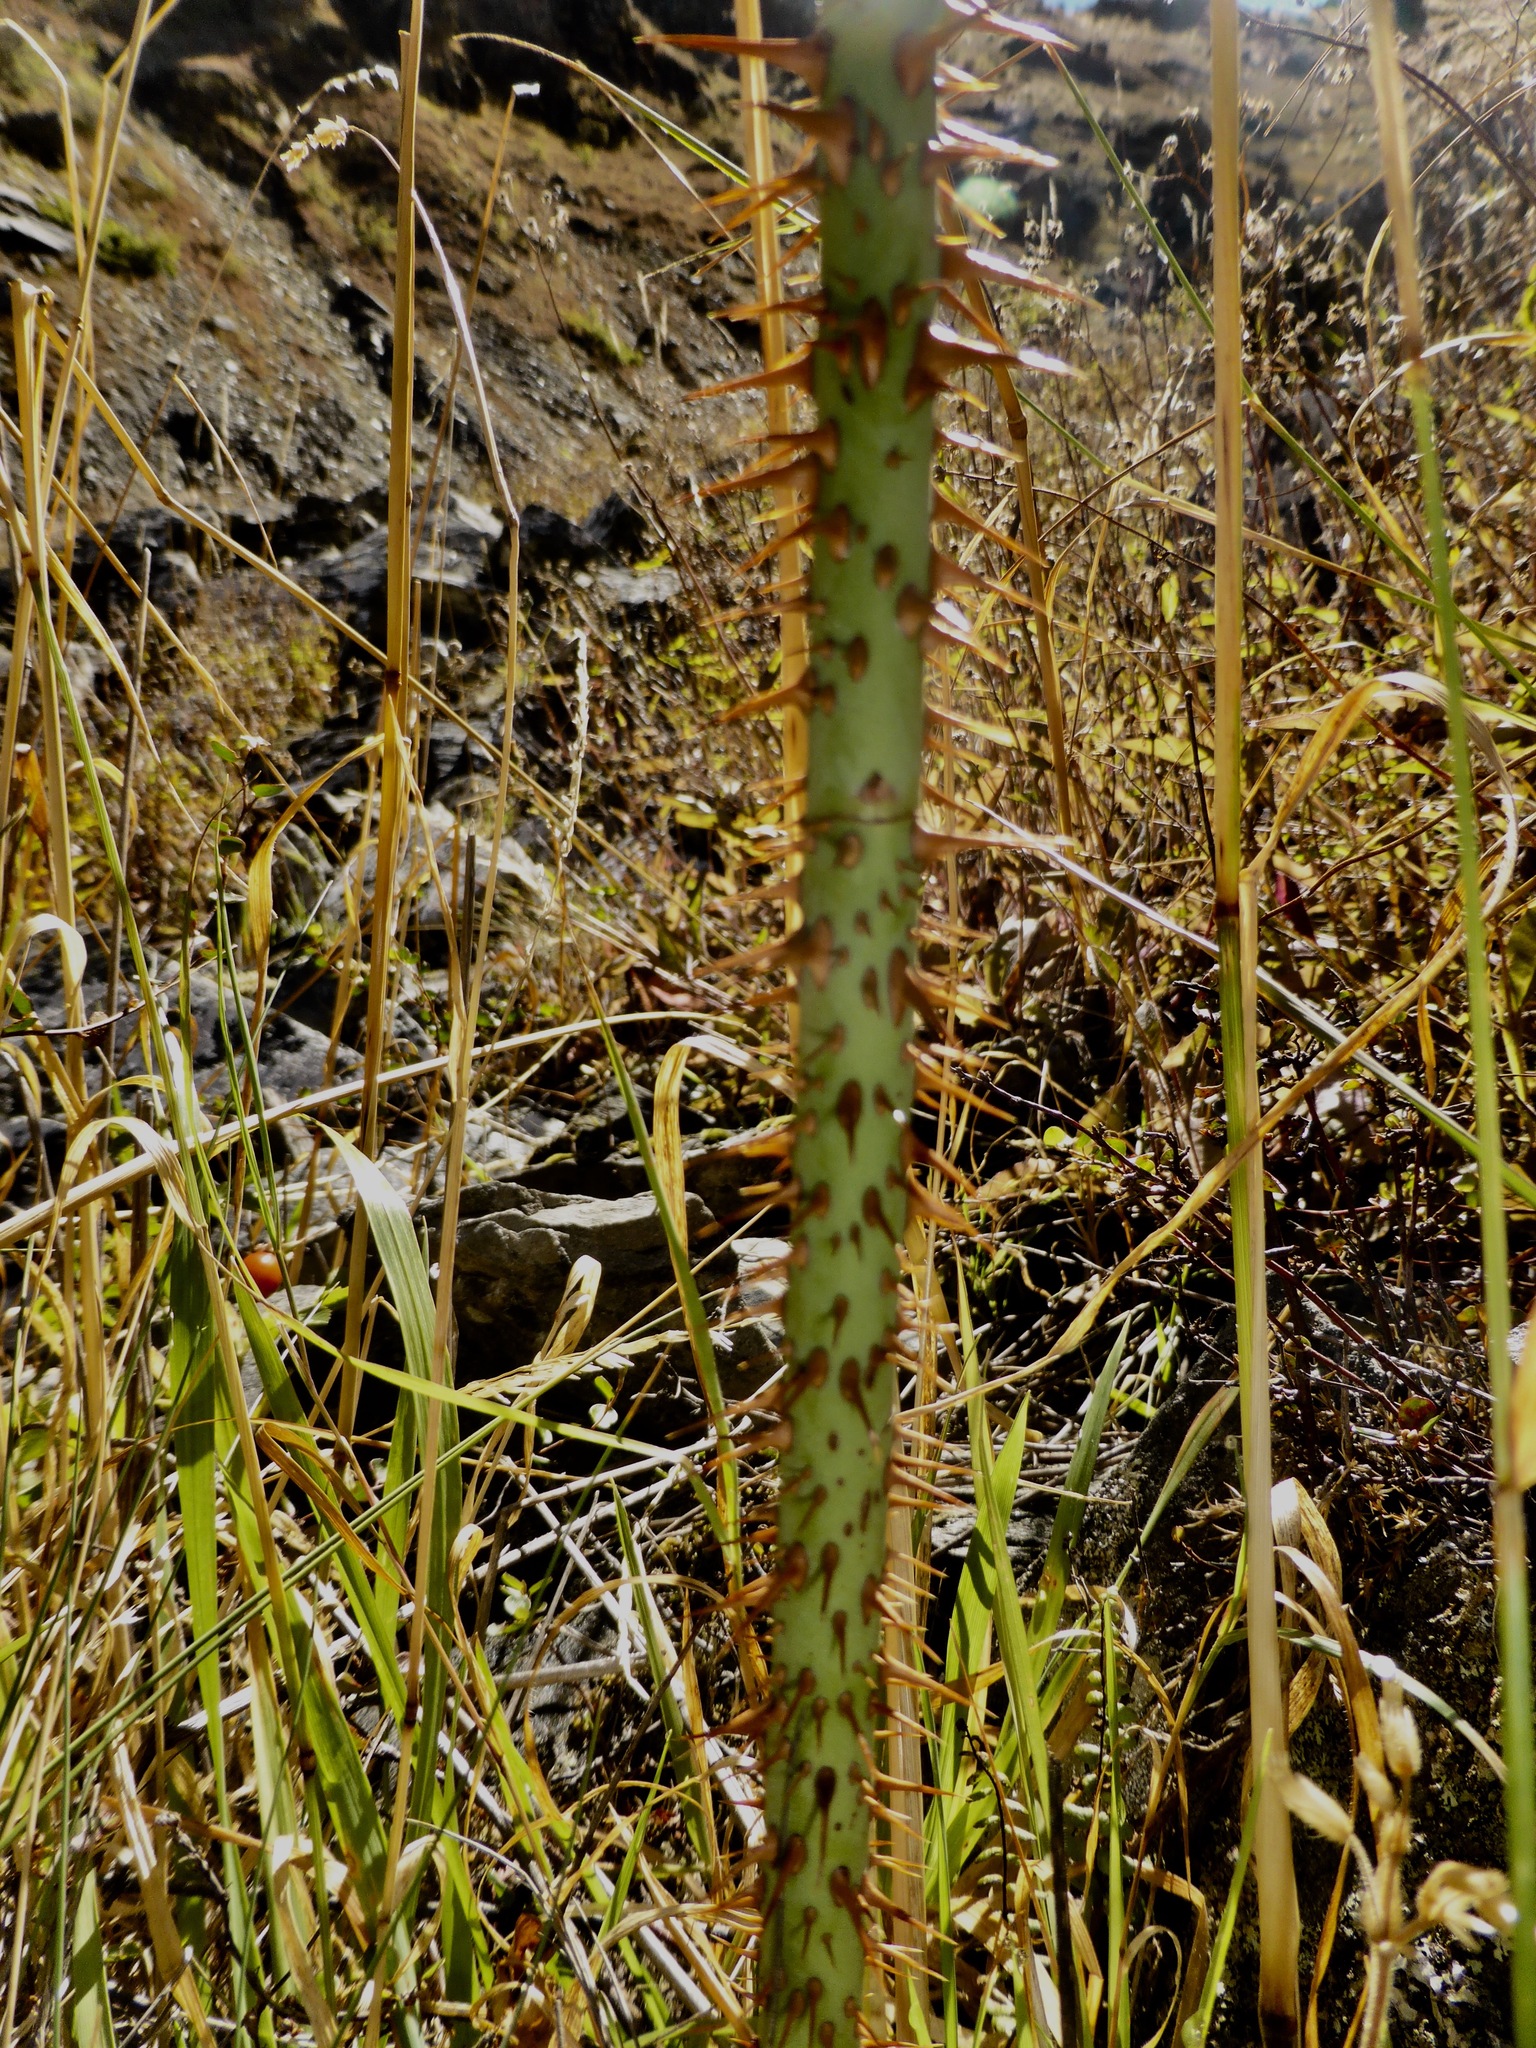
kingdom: Plantae
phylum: Tracheophyta
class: Magnoliopsida
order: Rosales
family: Rosaceae
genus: Rosa
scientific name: Rosa rubiginosa
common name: Sweet-briar
